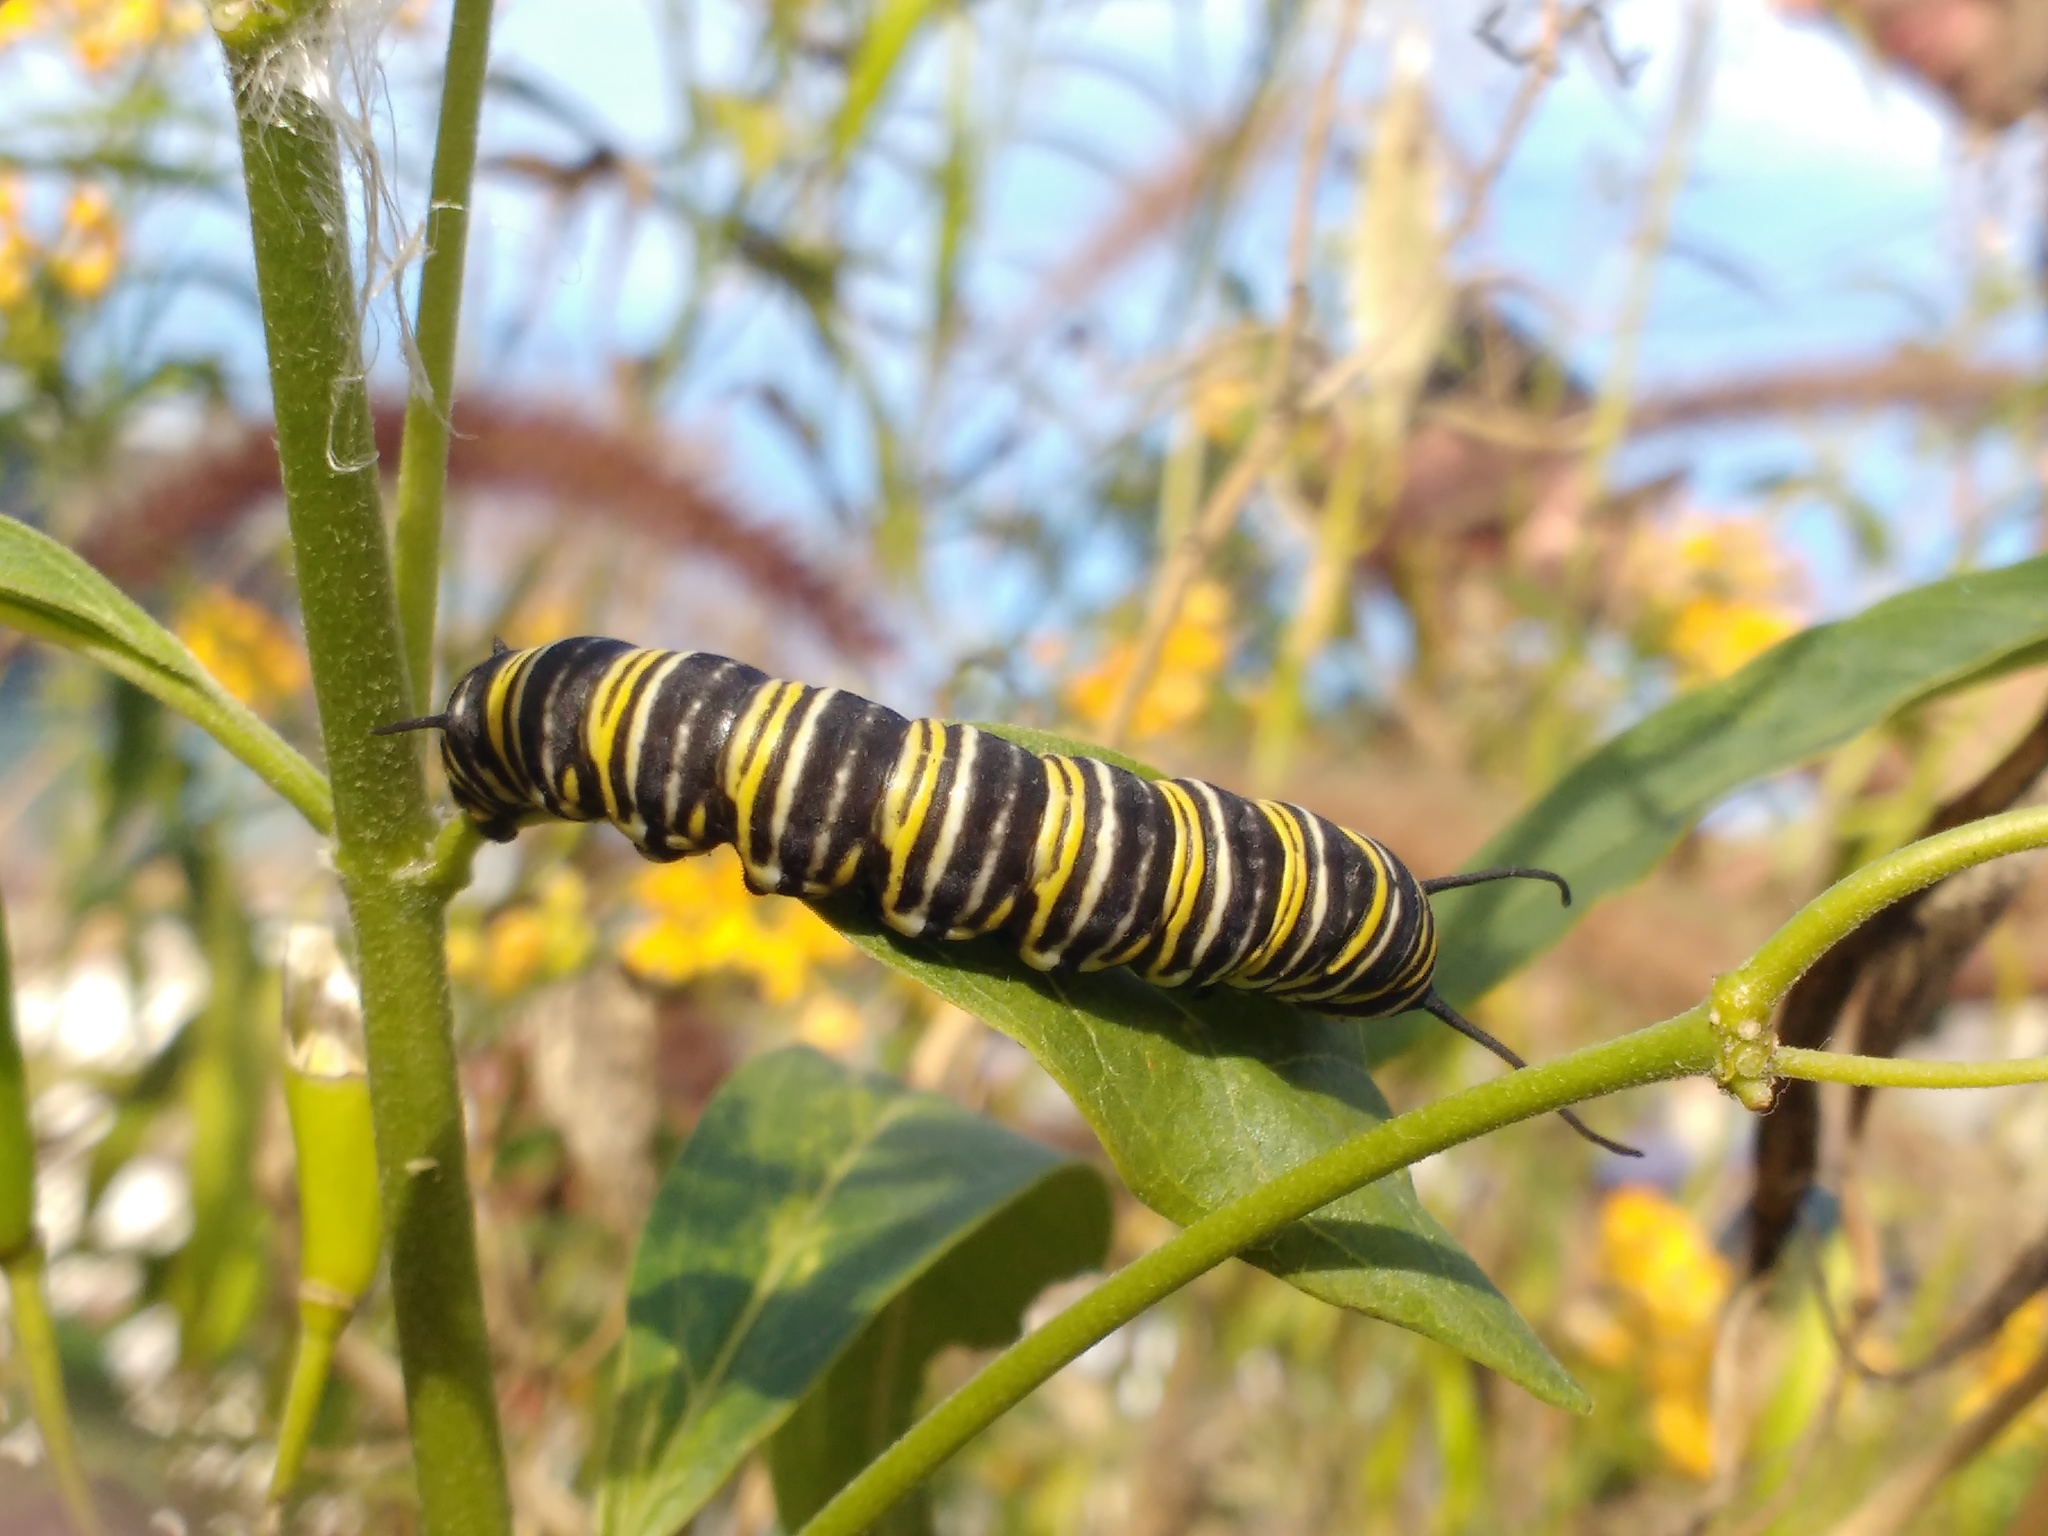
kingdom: Animalia
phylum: Arthropoda
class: Insecta
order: Lepidoptera
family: Nymphalidae
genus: Danaus
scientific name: Danaus plexippus
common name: Monarch
